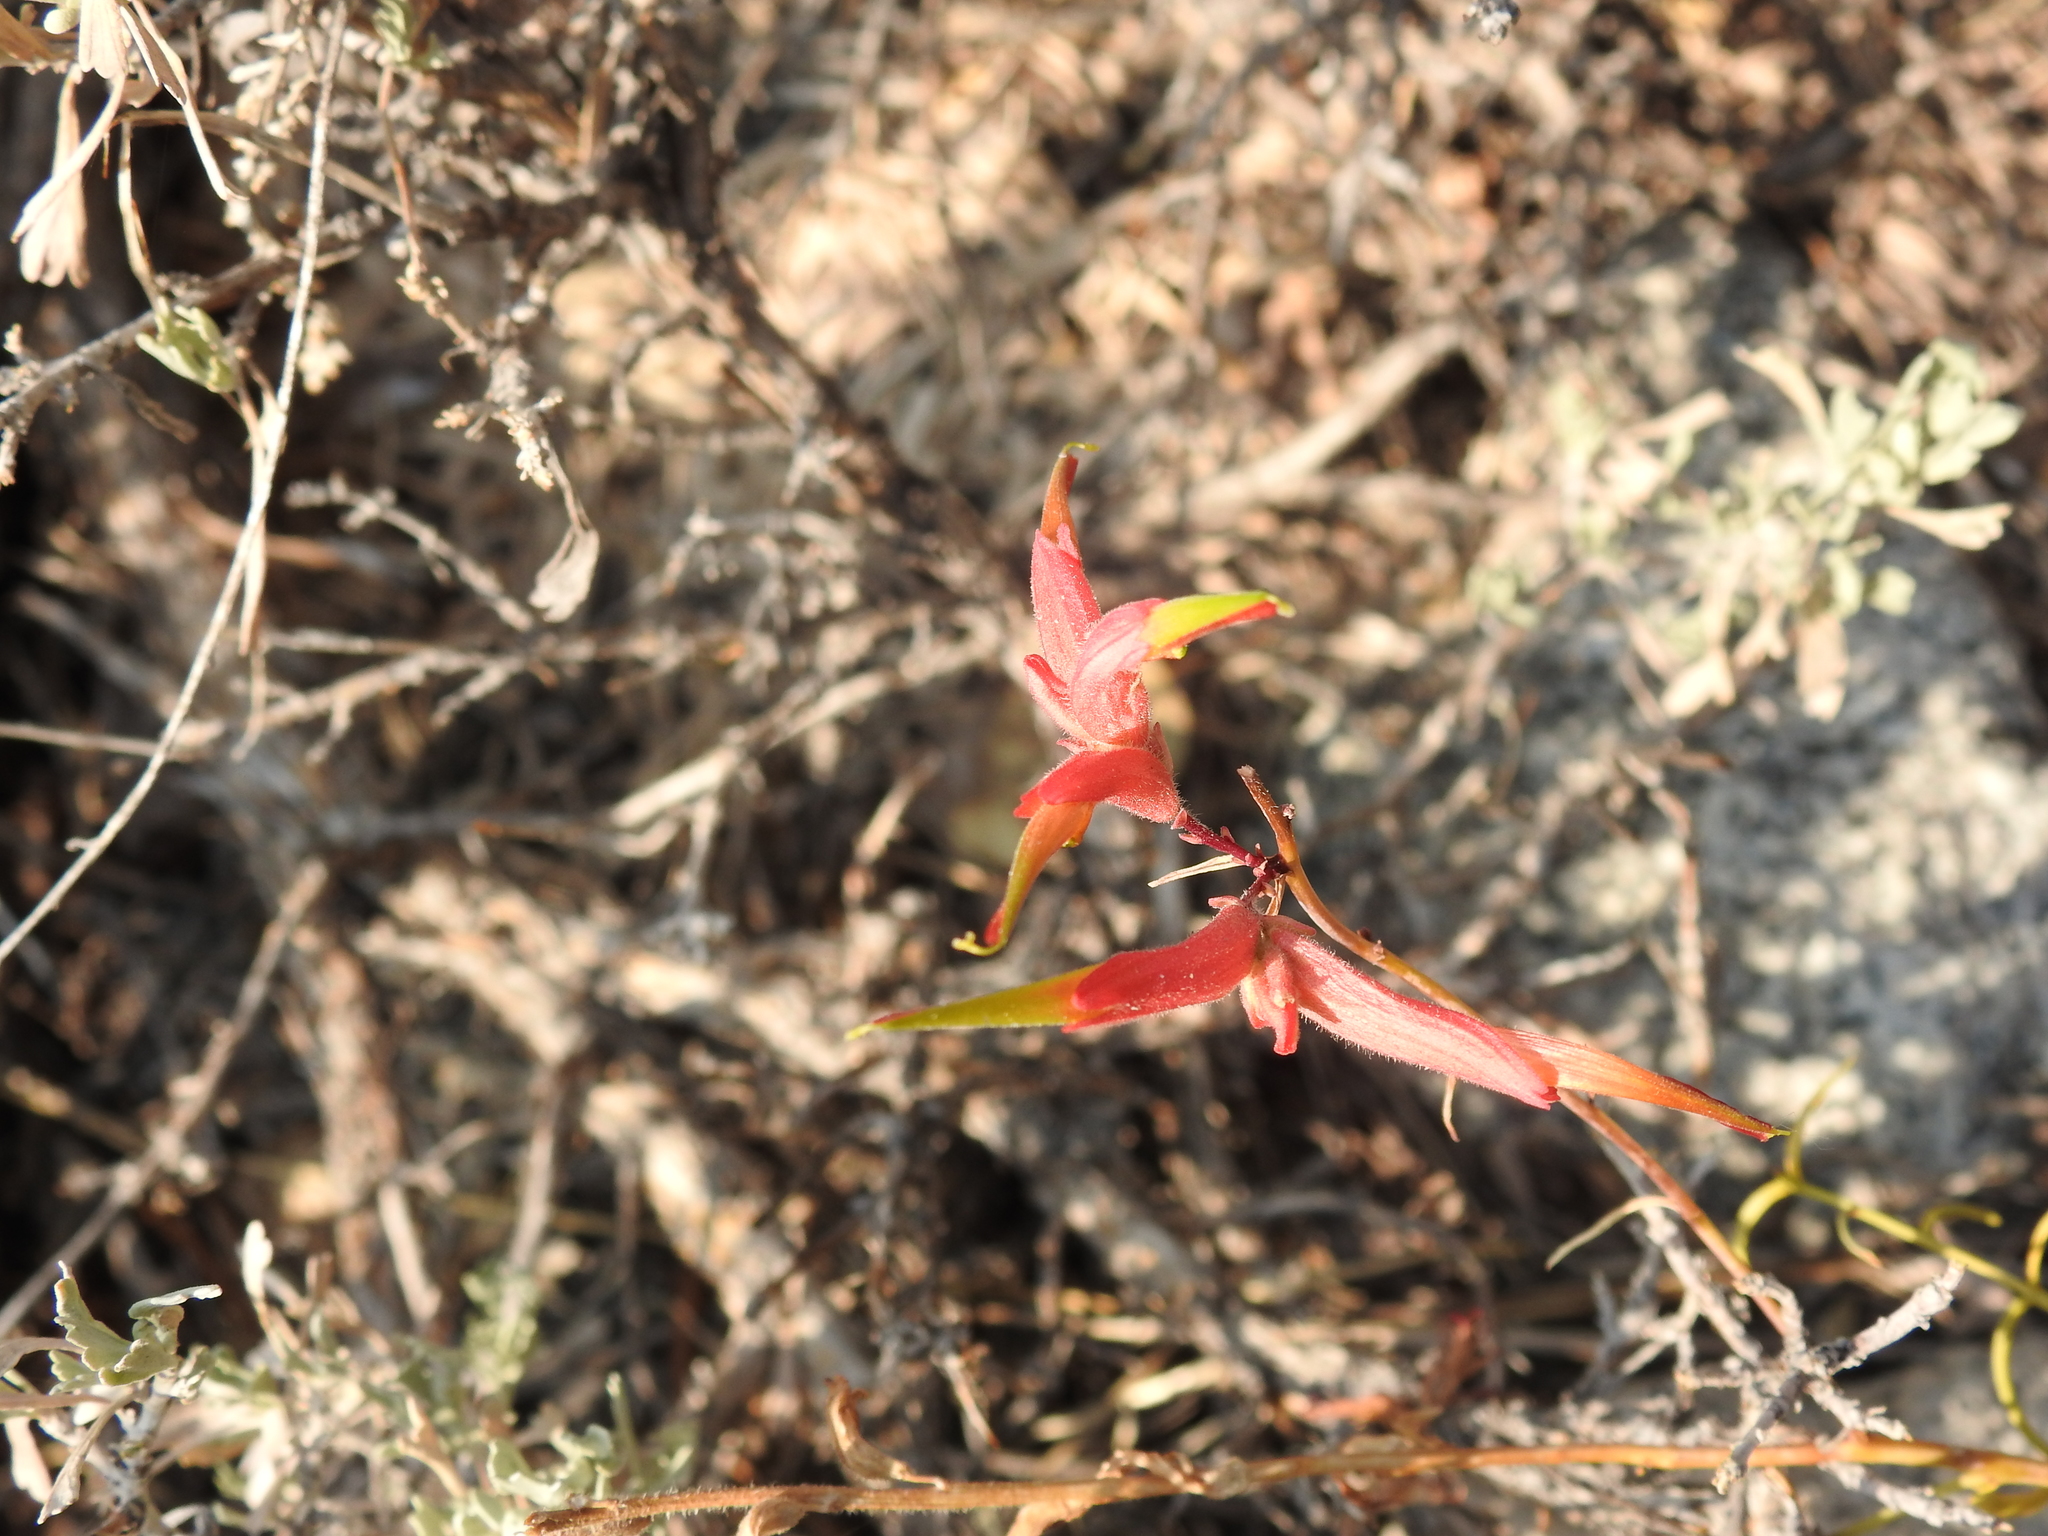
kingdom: Plantae
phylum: Tracheophyta
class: Magnoliopsida
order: Lamiales
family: Orobanchaceae
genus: Castilleja
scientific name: Castilleja linariifolia
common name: Wyoming paintbrush
